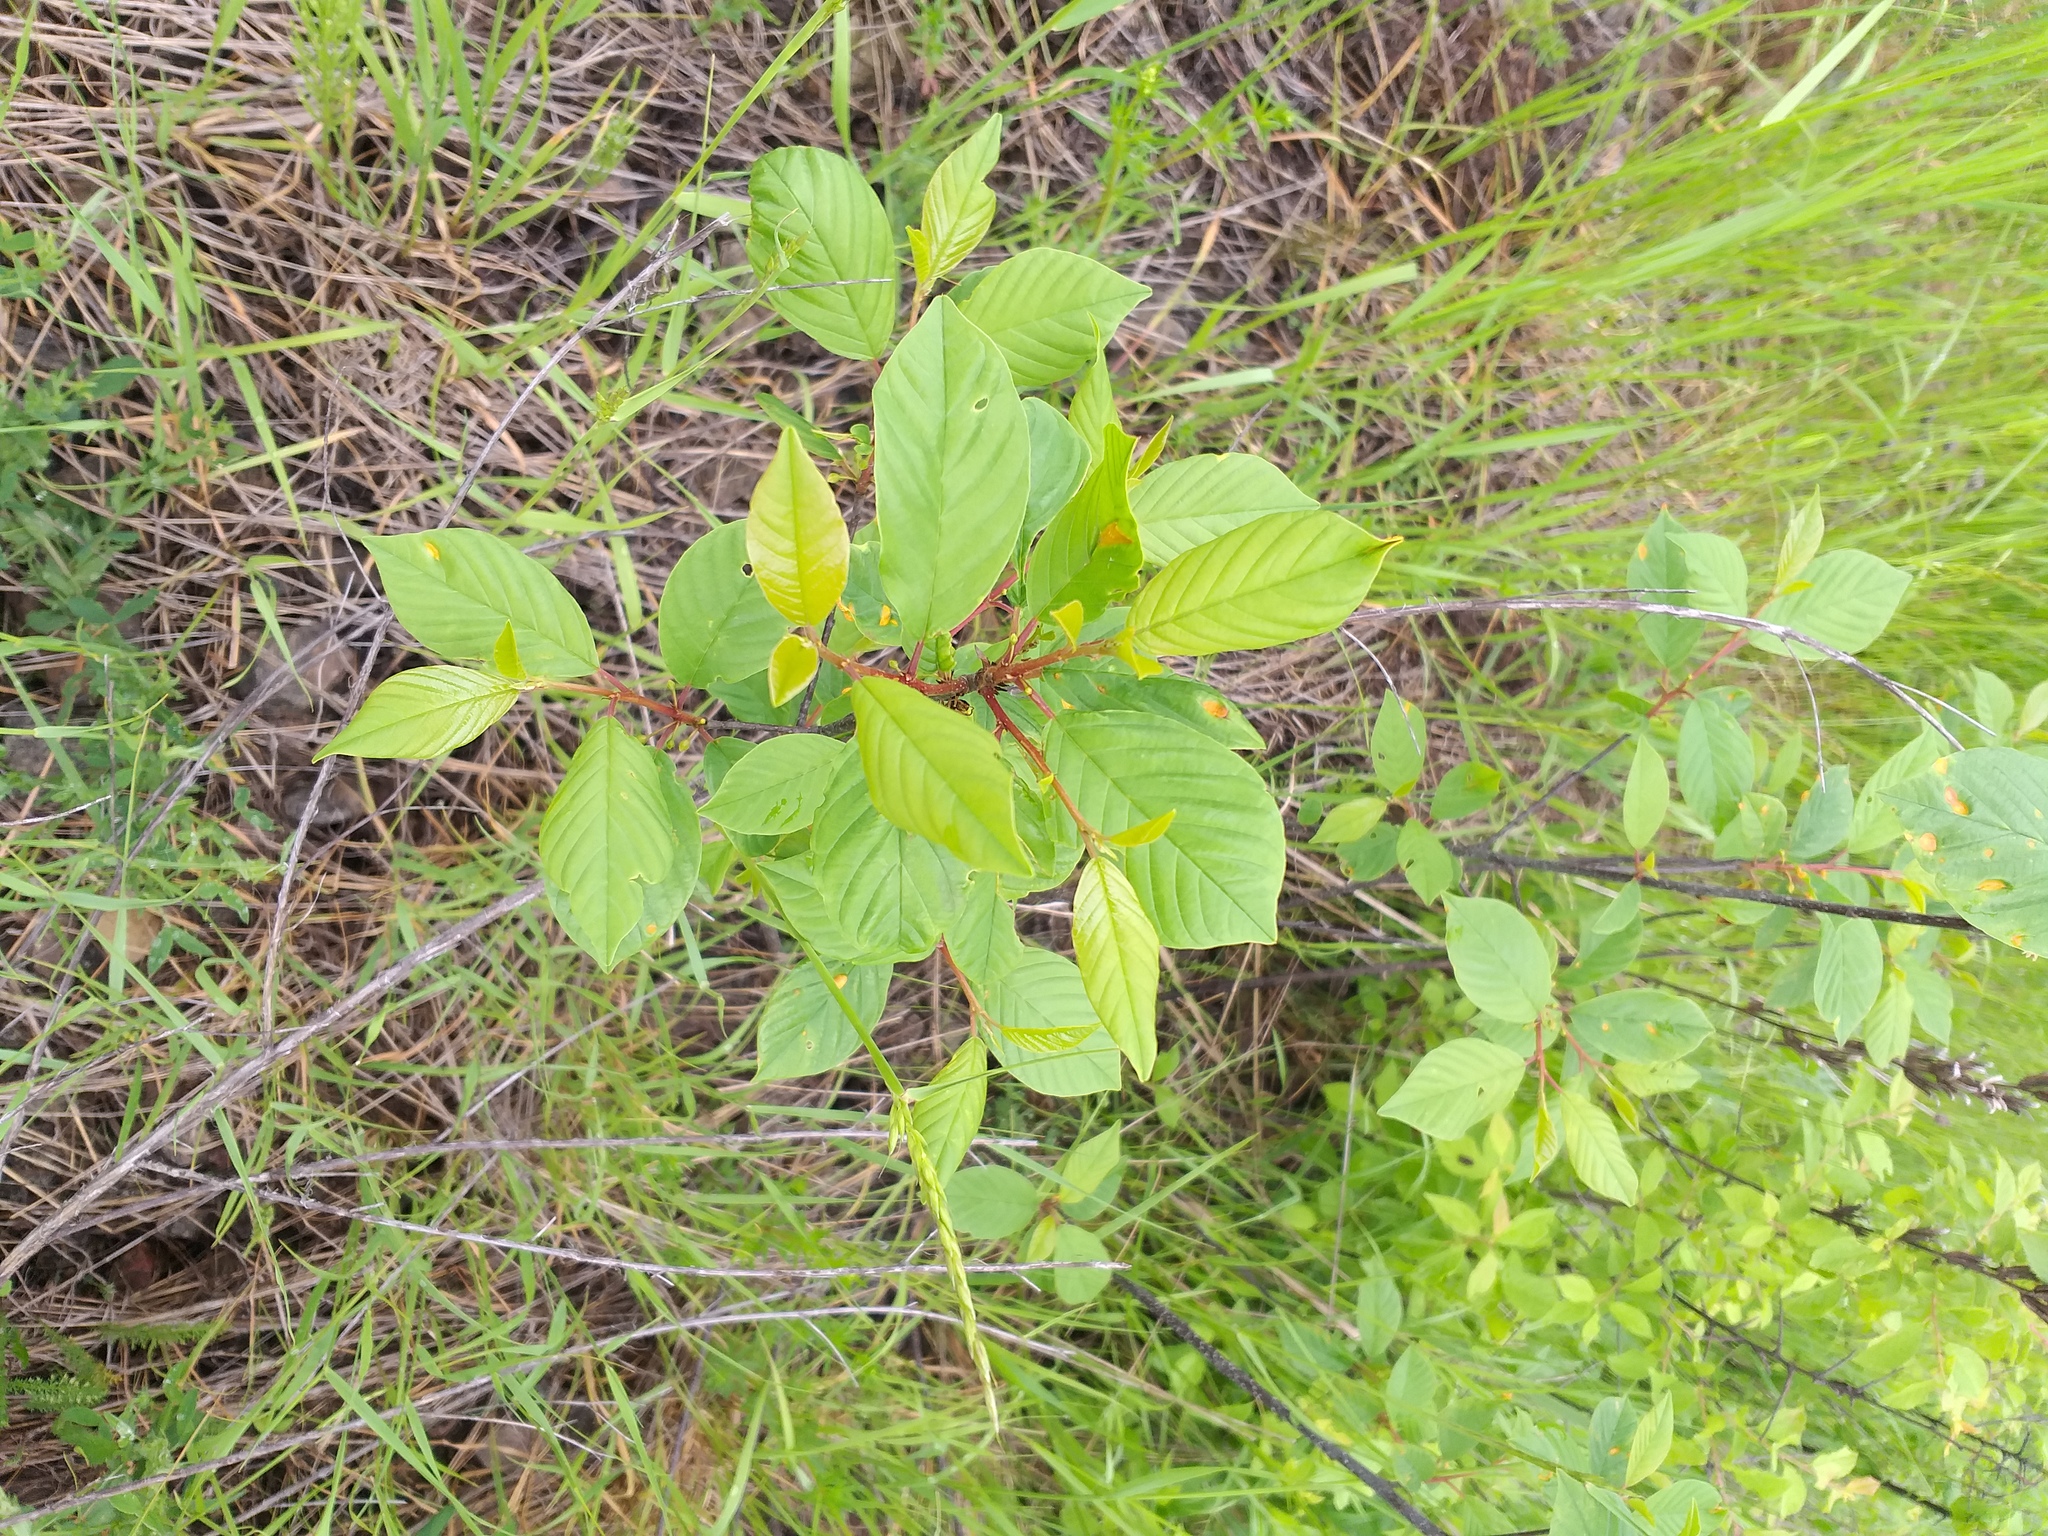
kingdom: Plantae
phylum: Tracheophyta
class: Magnoliopsida
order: Rosales
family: Rhamnaceae
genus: Frangula
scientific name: Frangula alnus
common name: Alder buckthorn
